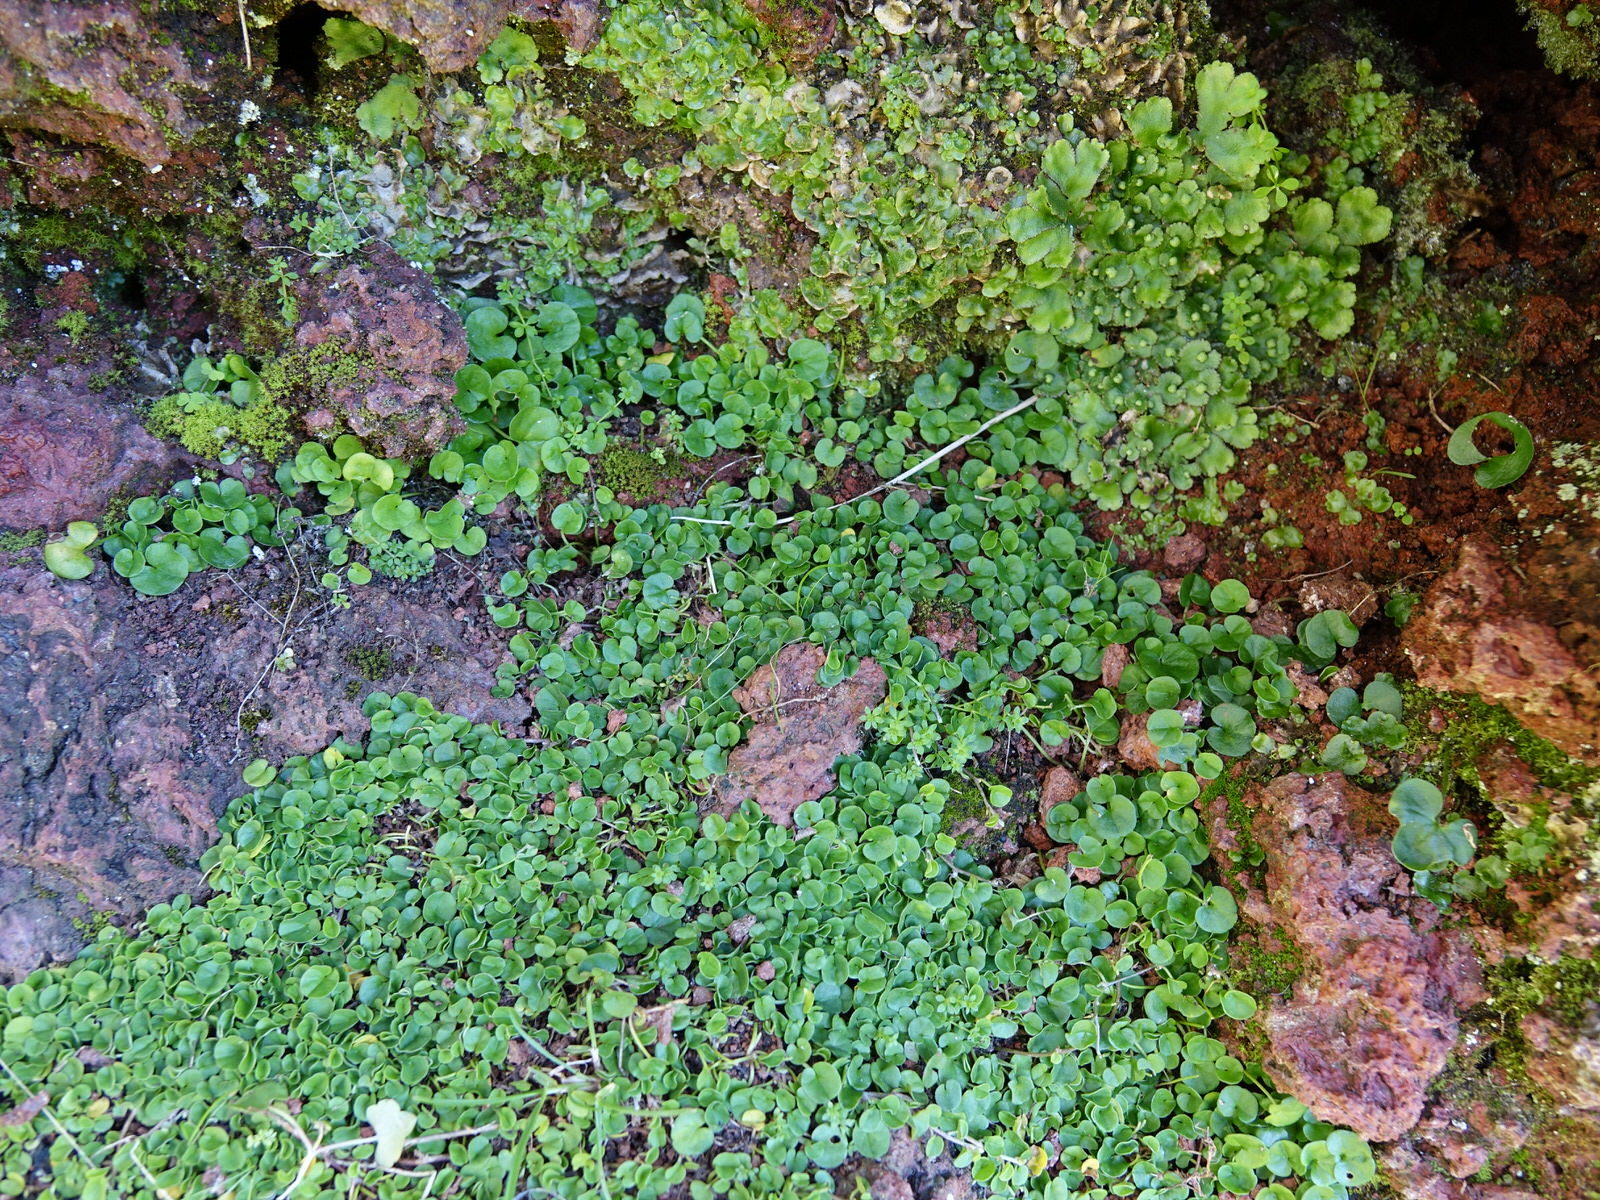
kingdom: Plantae
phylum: Tracheophyta
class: Magnoliopsida
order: Solanales
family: Convolvulaceae
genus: Dichondra
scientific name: Dichondra repens
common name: Kidneyweed
